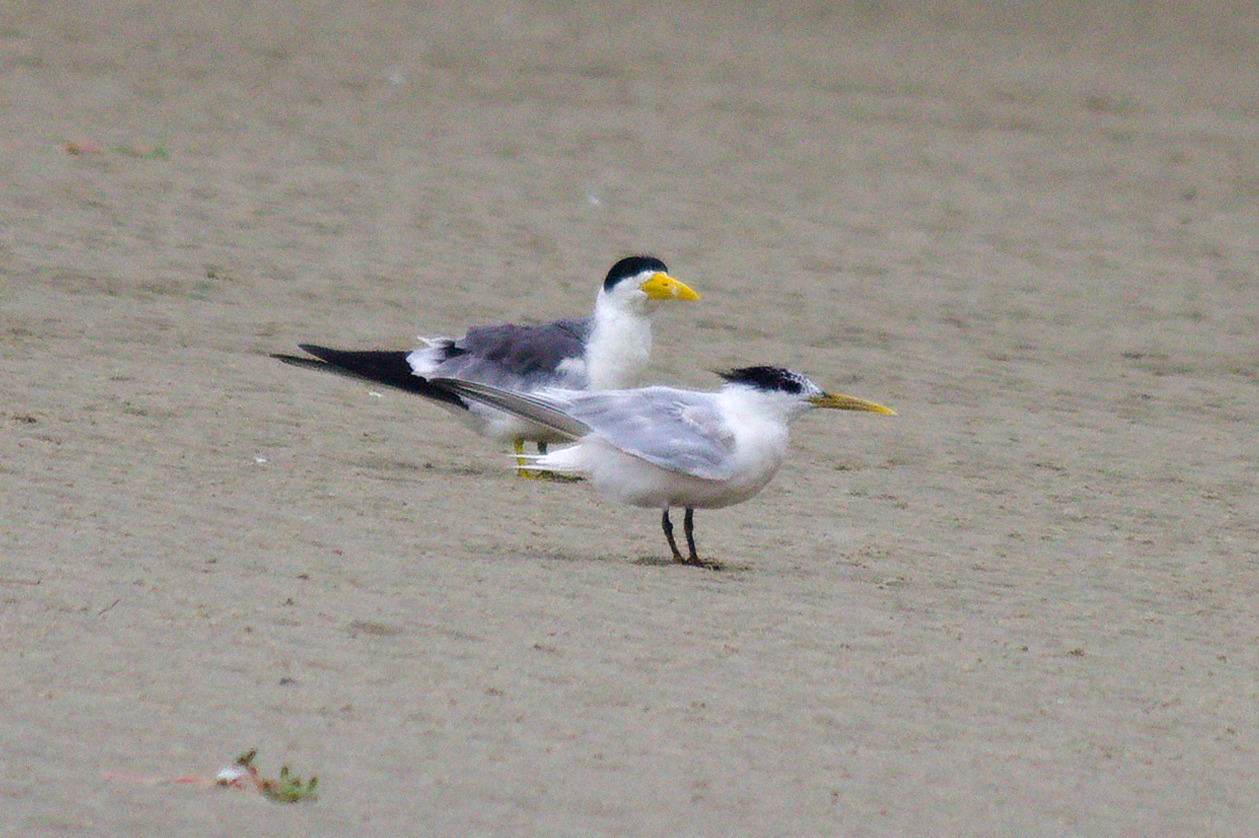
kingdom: Animalia
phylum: Chordata
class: Aves
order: Charadriiformes
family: Laridae
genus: Phaetusa
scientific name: Phaetusa simplex
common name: Large-billed tern
